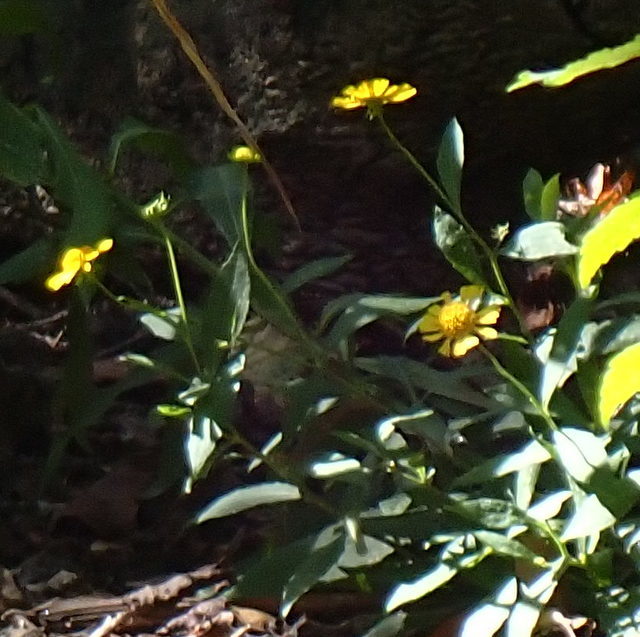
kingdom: Plantae
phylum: Tracheophyta
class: Magnoliopsida
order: Asterales
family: Asteraceae
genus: Helenium
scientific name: Helenium autumnale
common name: Sneezeweed
